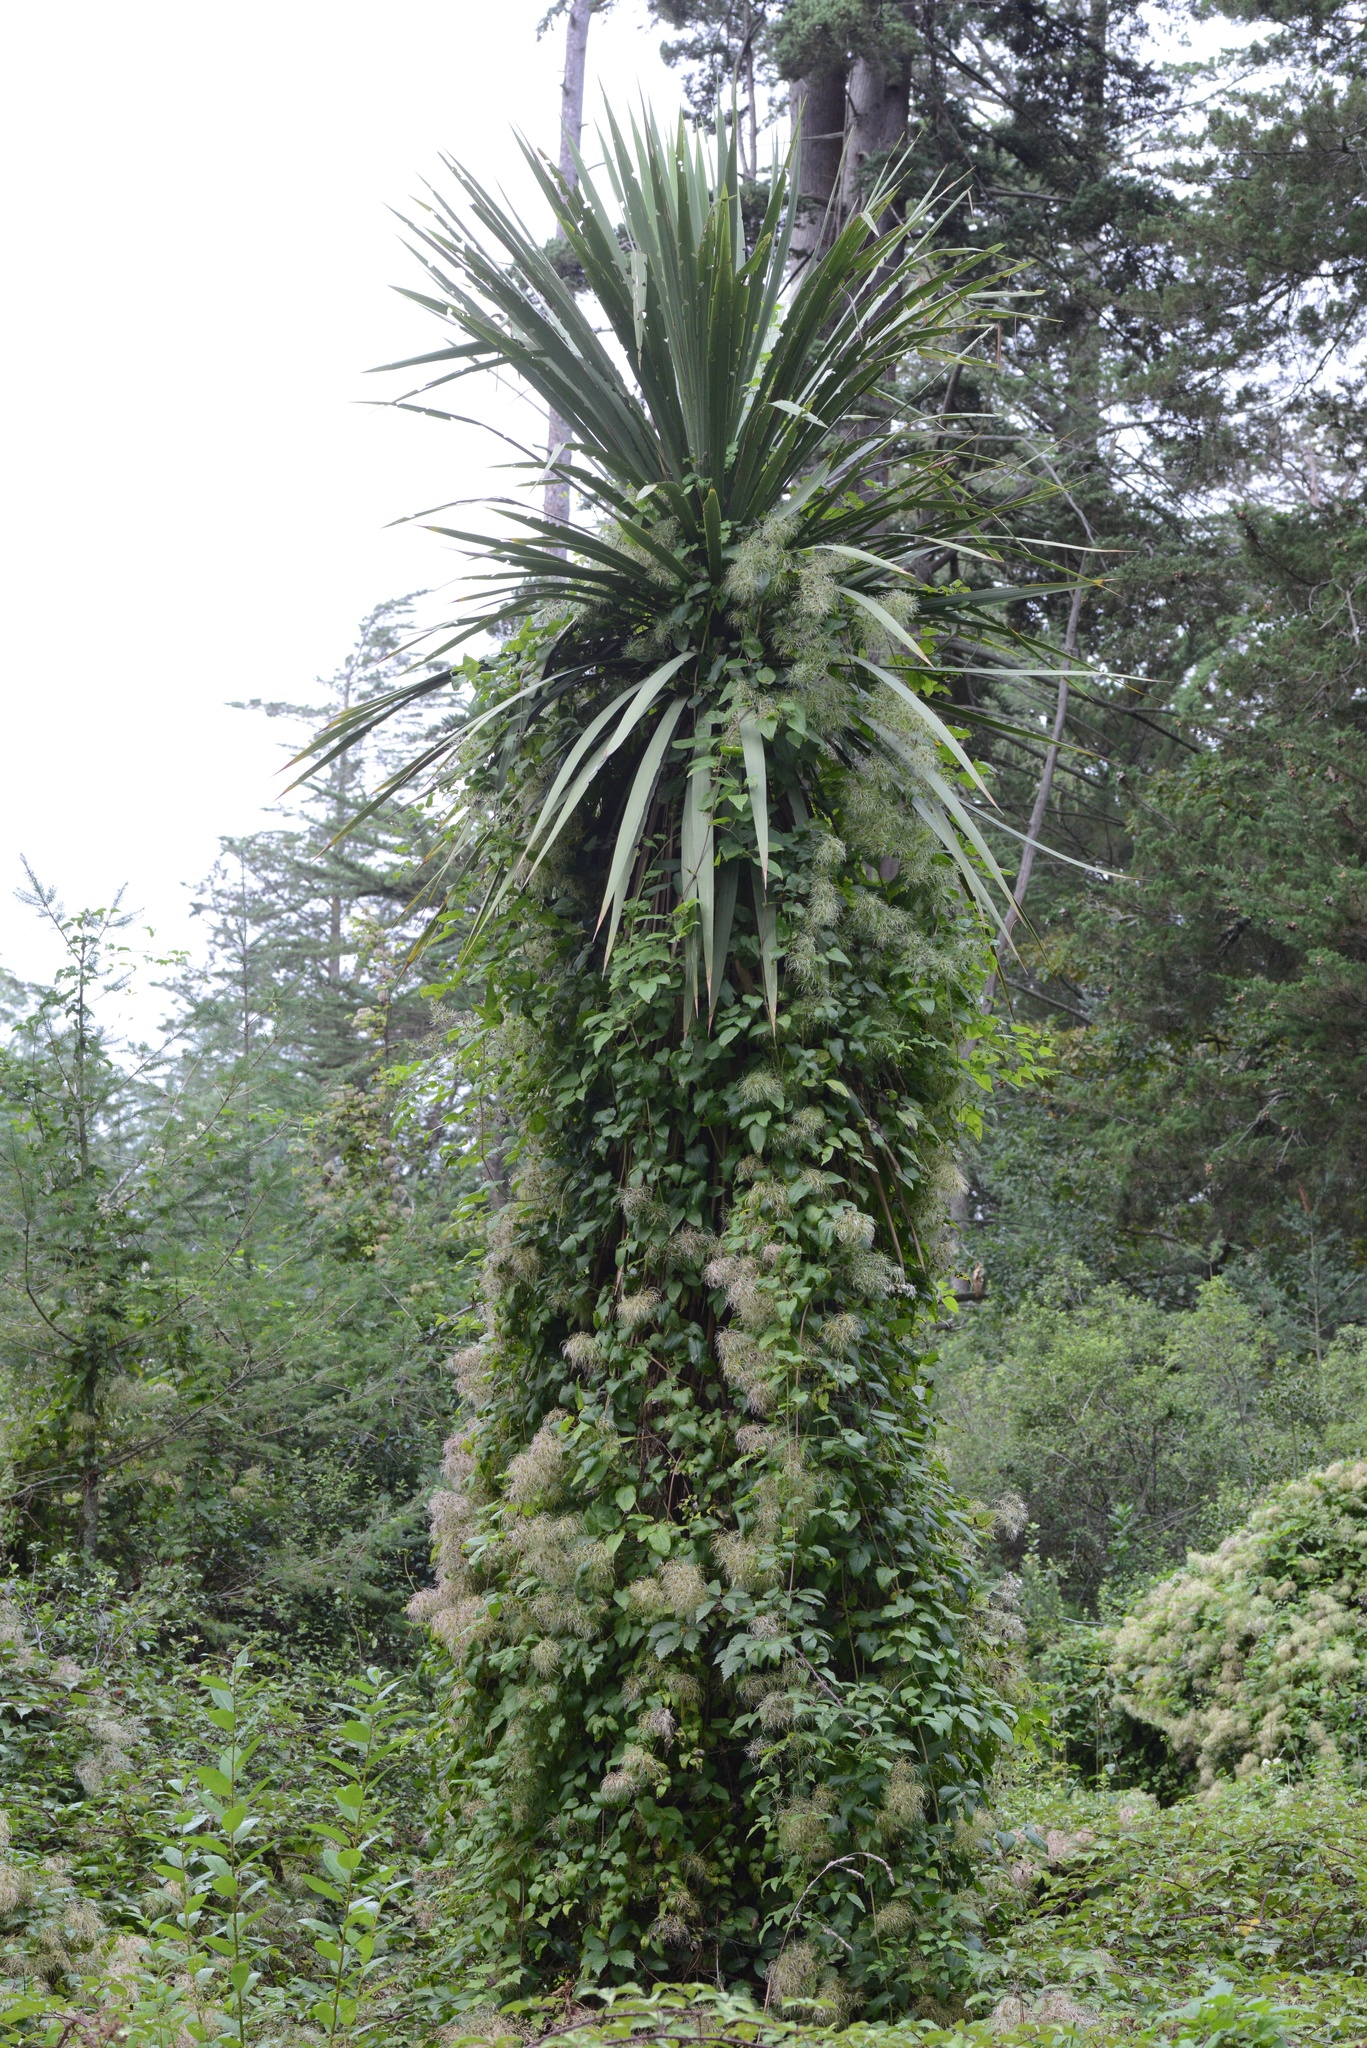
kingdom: Plantae
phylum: Tracheophyta
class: Liliopsida
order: Asparagales
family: Asparagaceae
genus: Cordyline
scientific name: Cordyline australis
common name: Cabbage-palm
